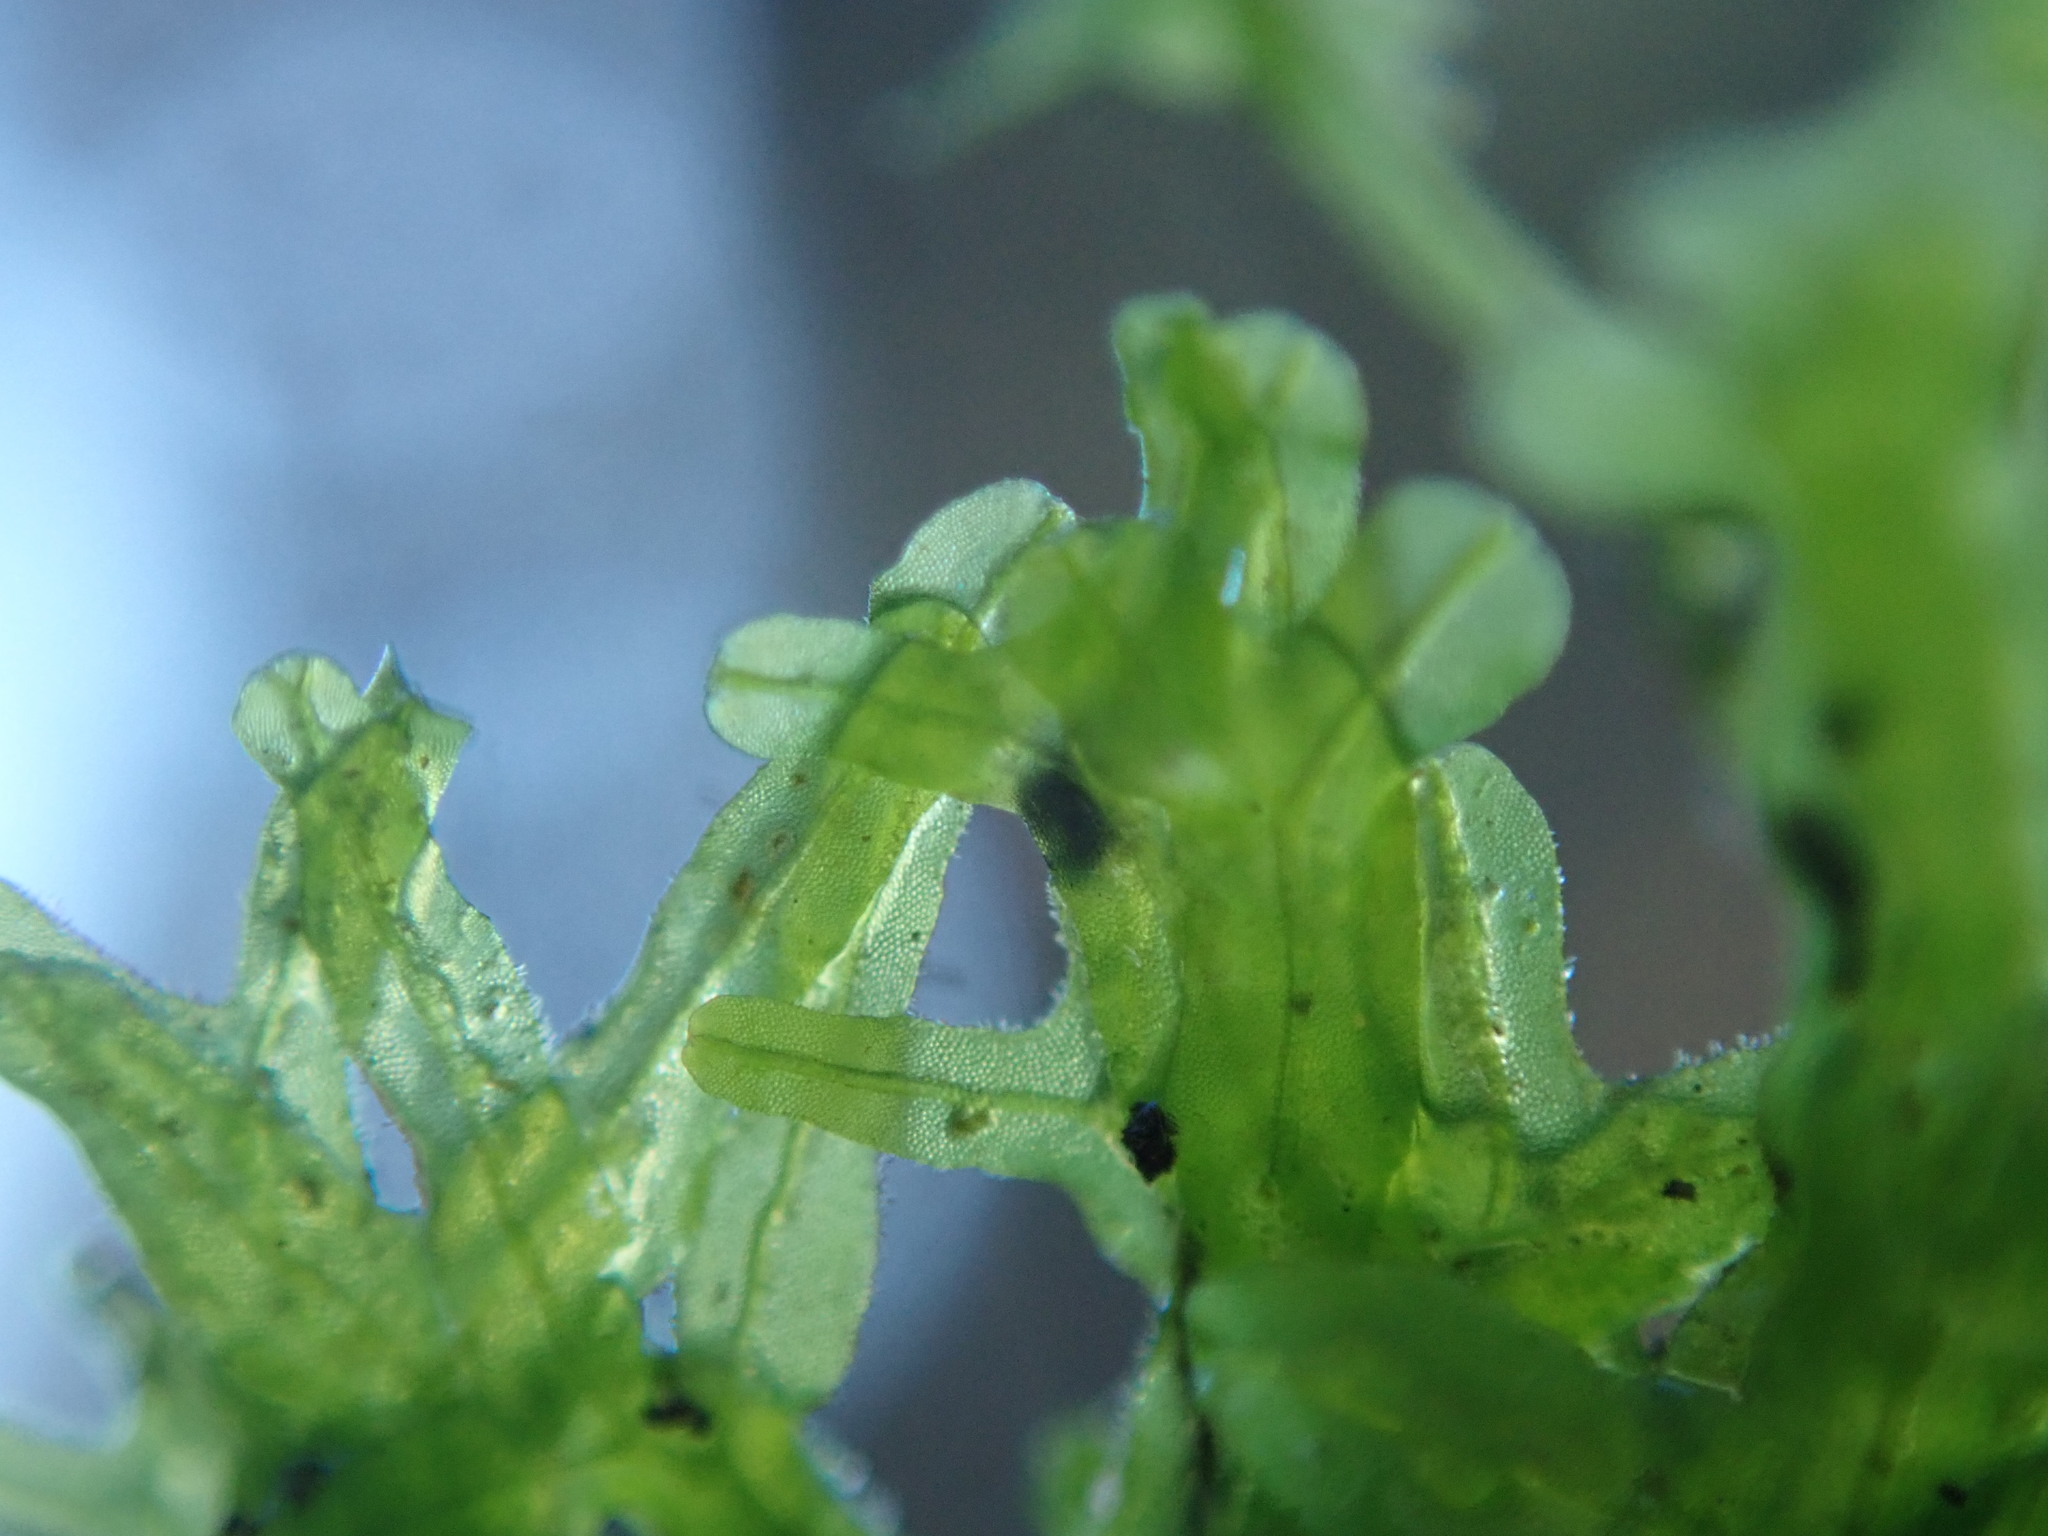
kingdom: Plantae
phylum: Marchantiophyta
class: Jungermanniopsida
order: Metzgeriales
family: Metzgeriaceae
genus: Metzgeria
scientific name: Metzgeria conjugata
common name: Rock veilwort
